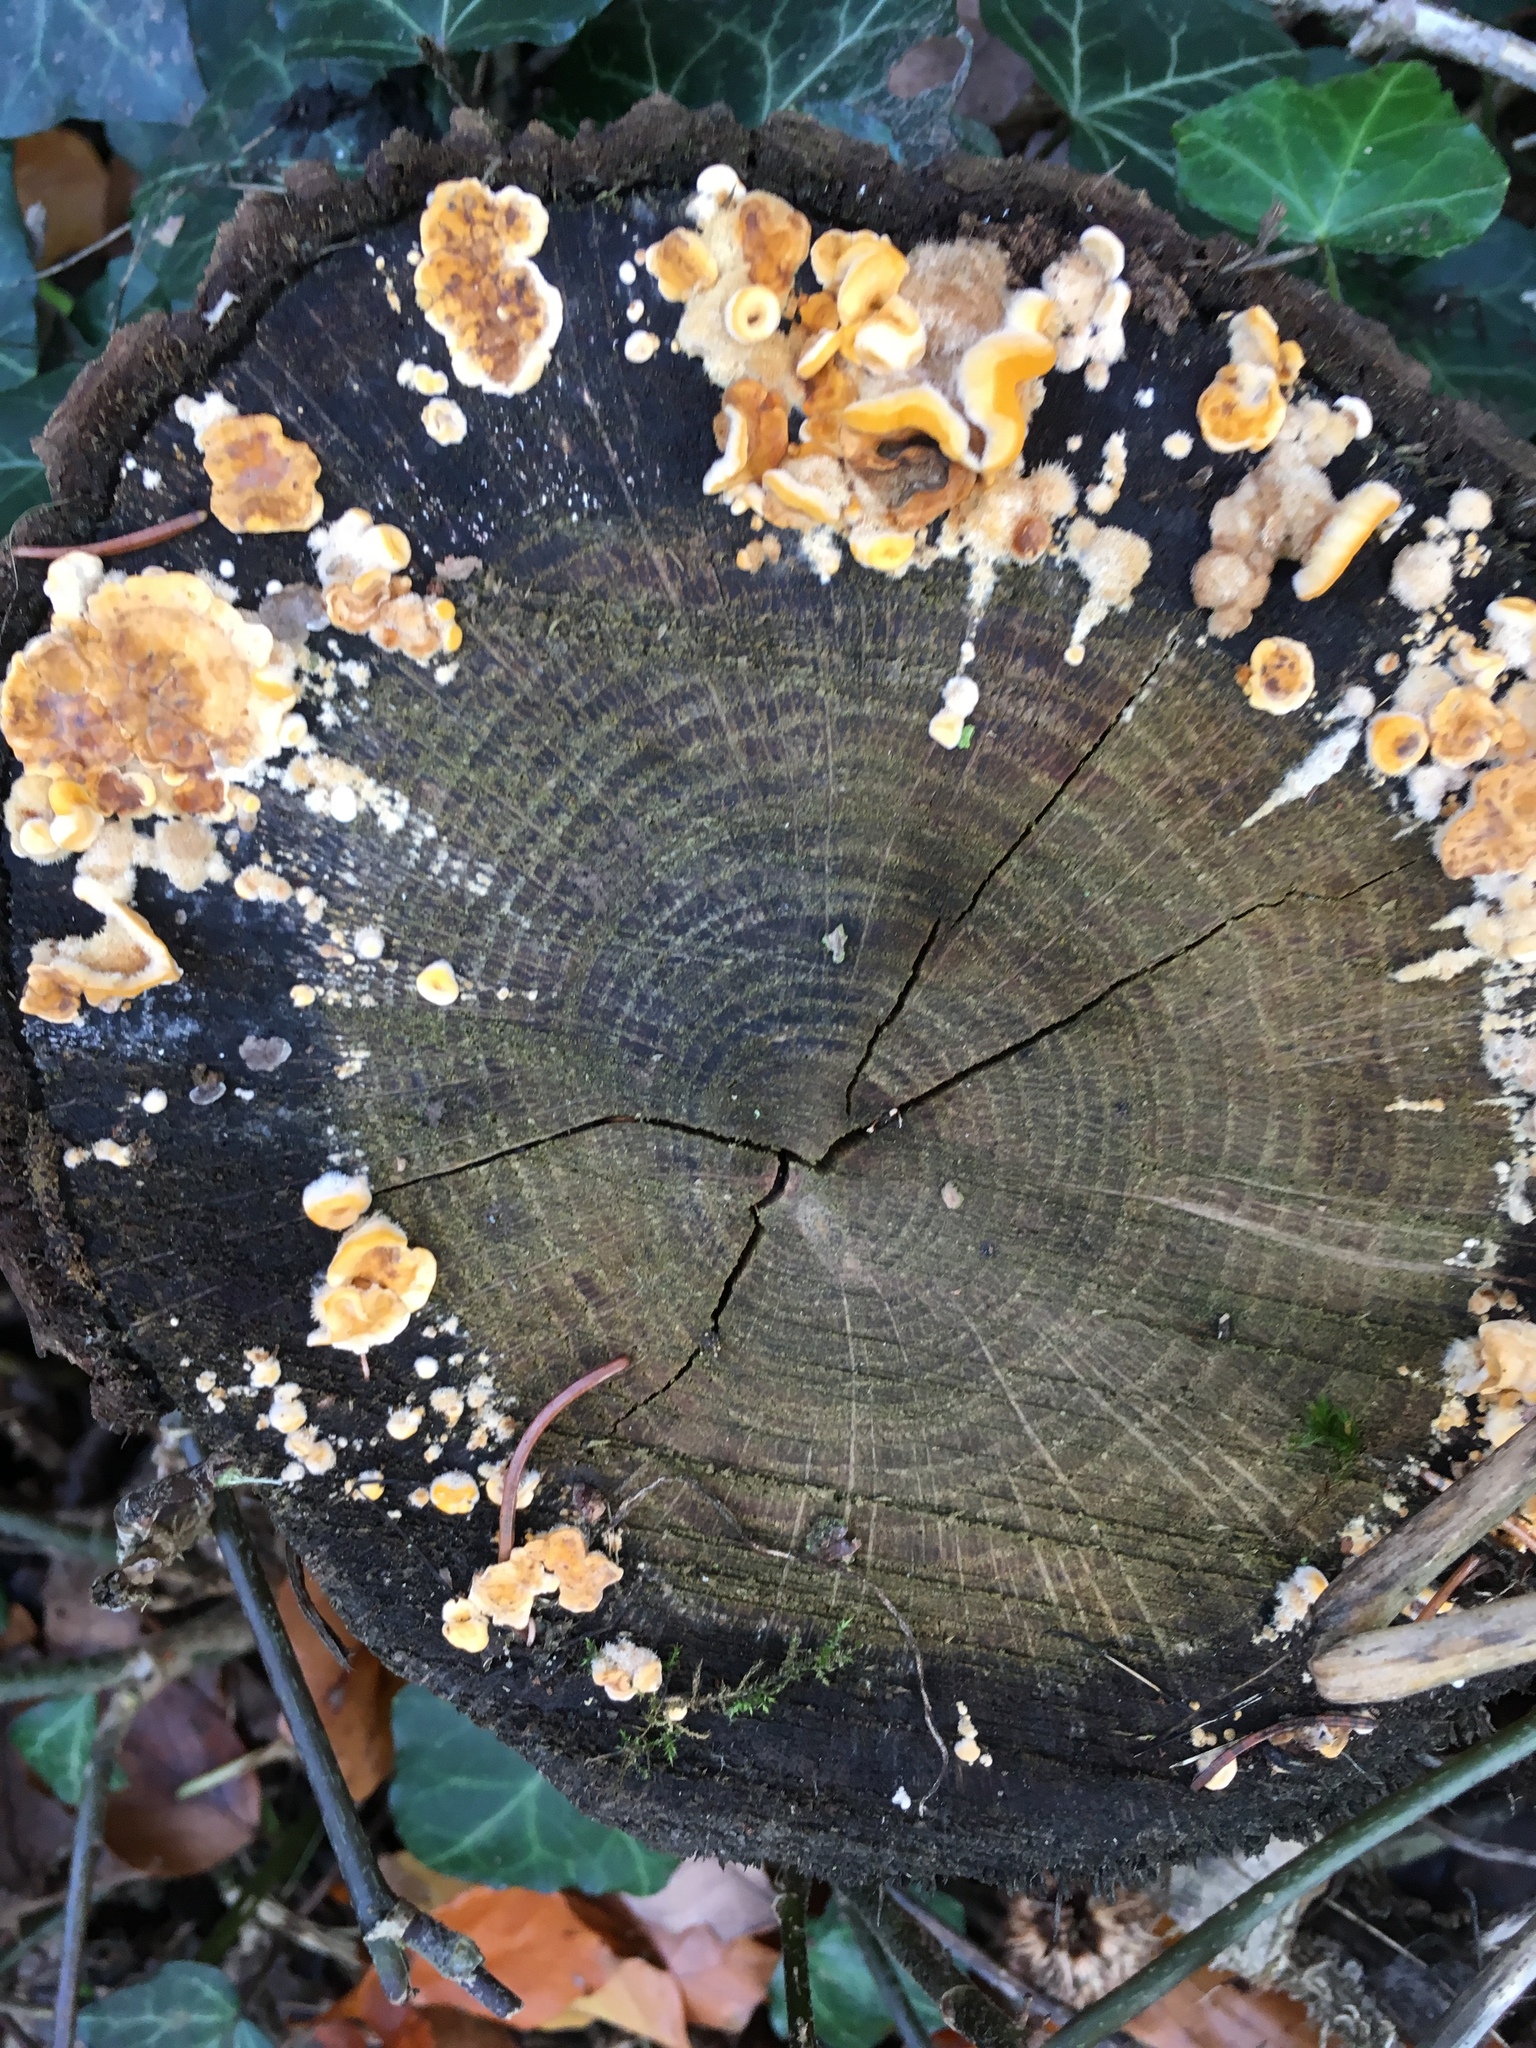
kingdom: Fungi
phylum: Basidiomycota
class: Agaricomycetes
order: Russulales
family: Stereaceae
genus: Stereum
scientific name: Stereum hirsutum
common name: Hairy curtain crust
